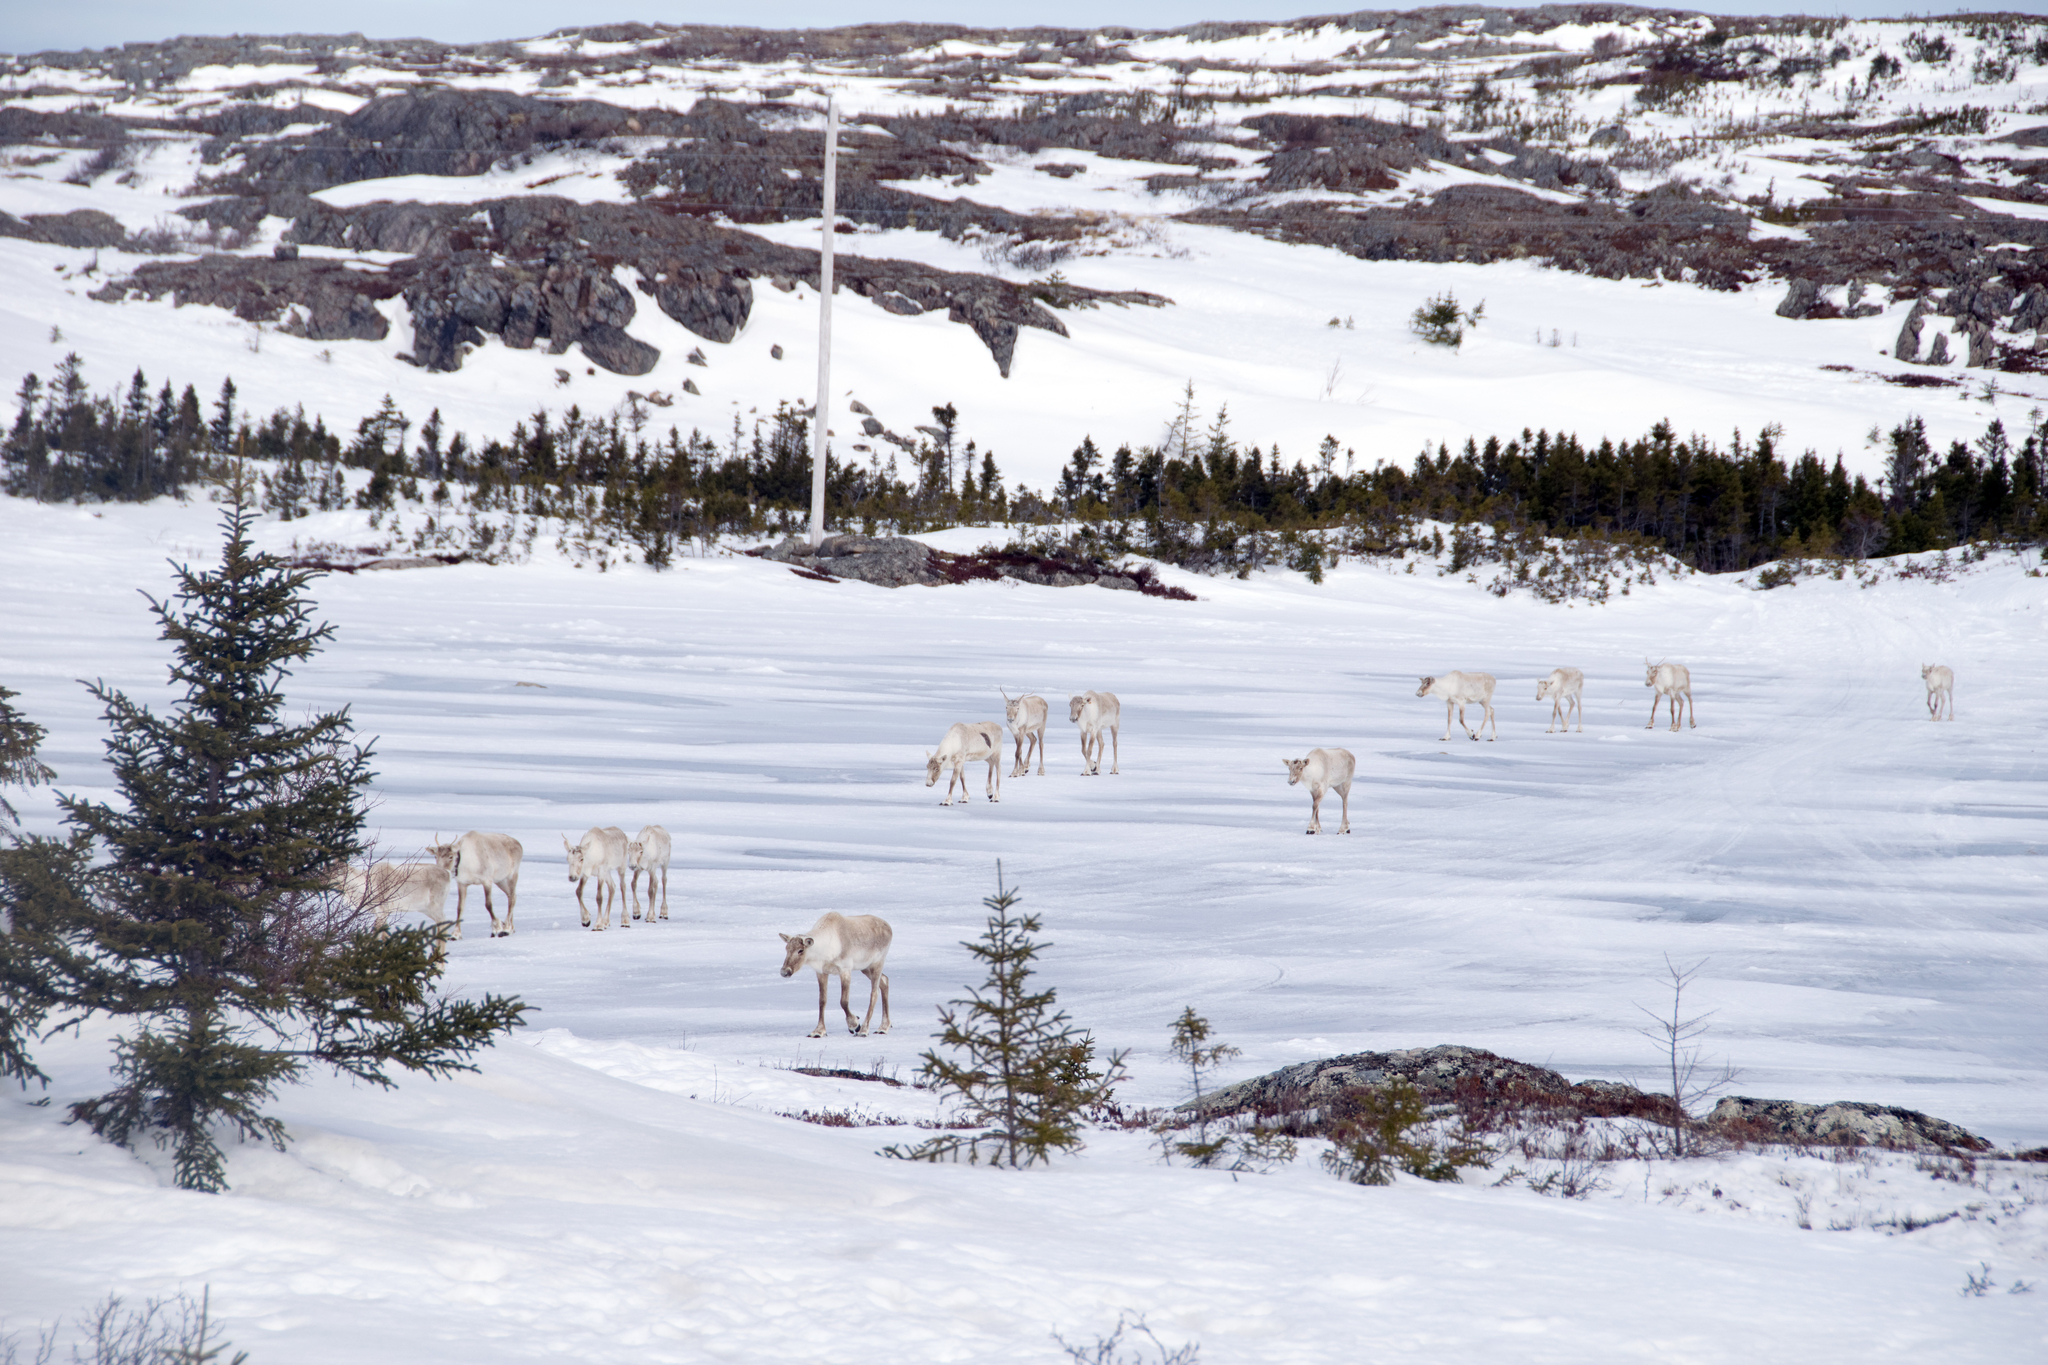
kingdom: Animalia
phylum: Chordata
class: Mammalia
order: Artiodactyla
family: Cervidae
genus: Rangifer
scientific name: Rangifer tarandus
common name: Reindeer
